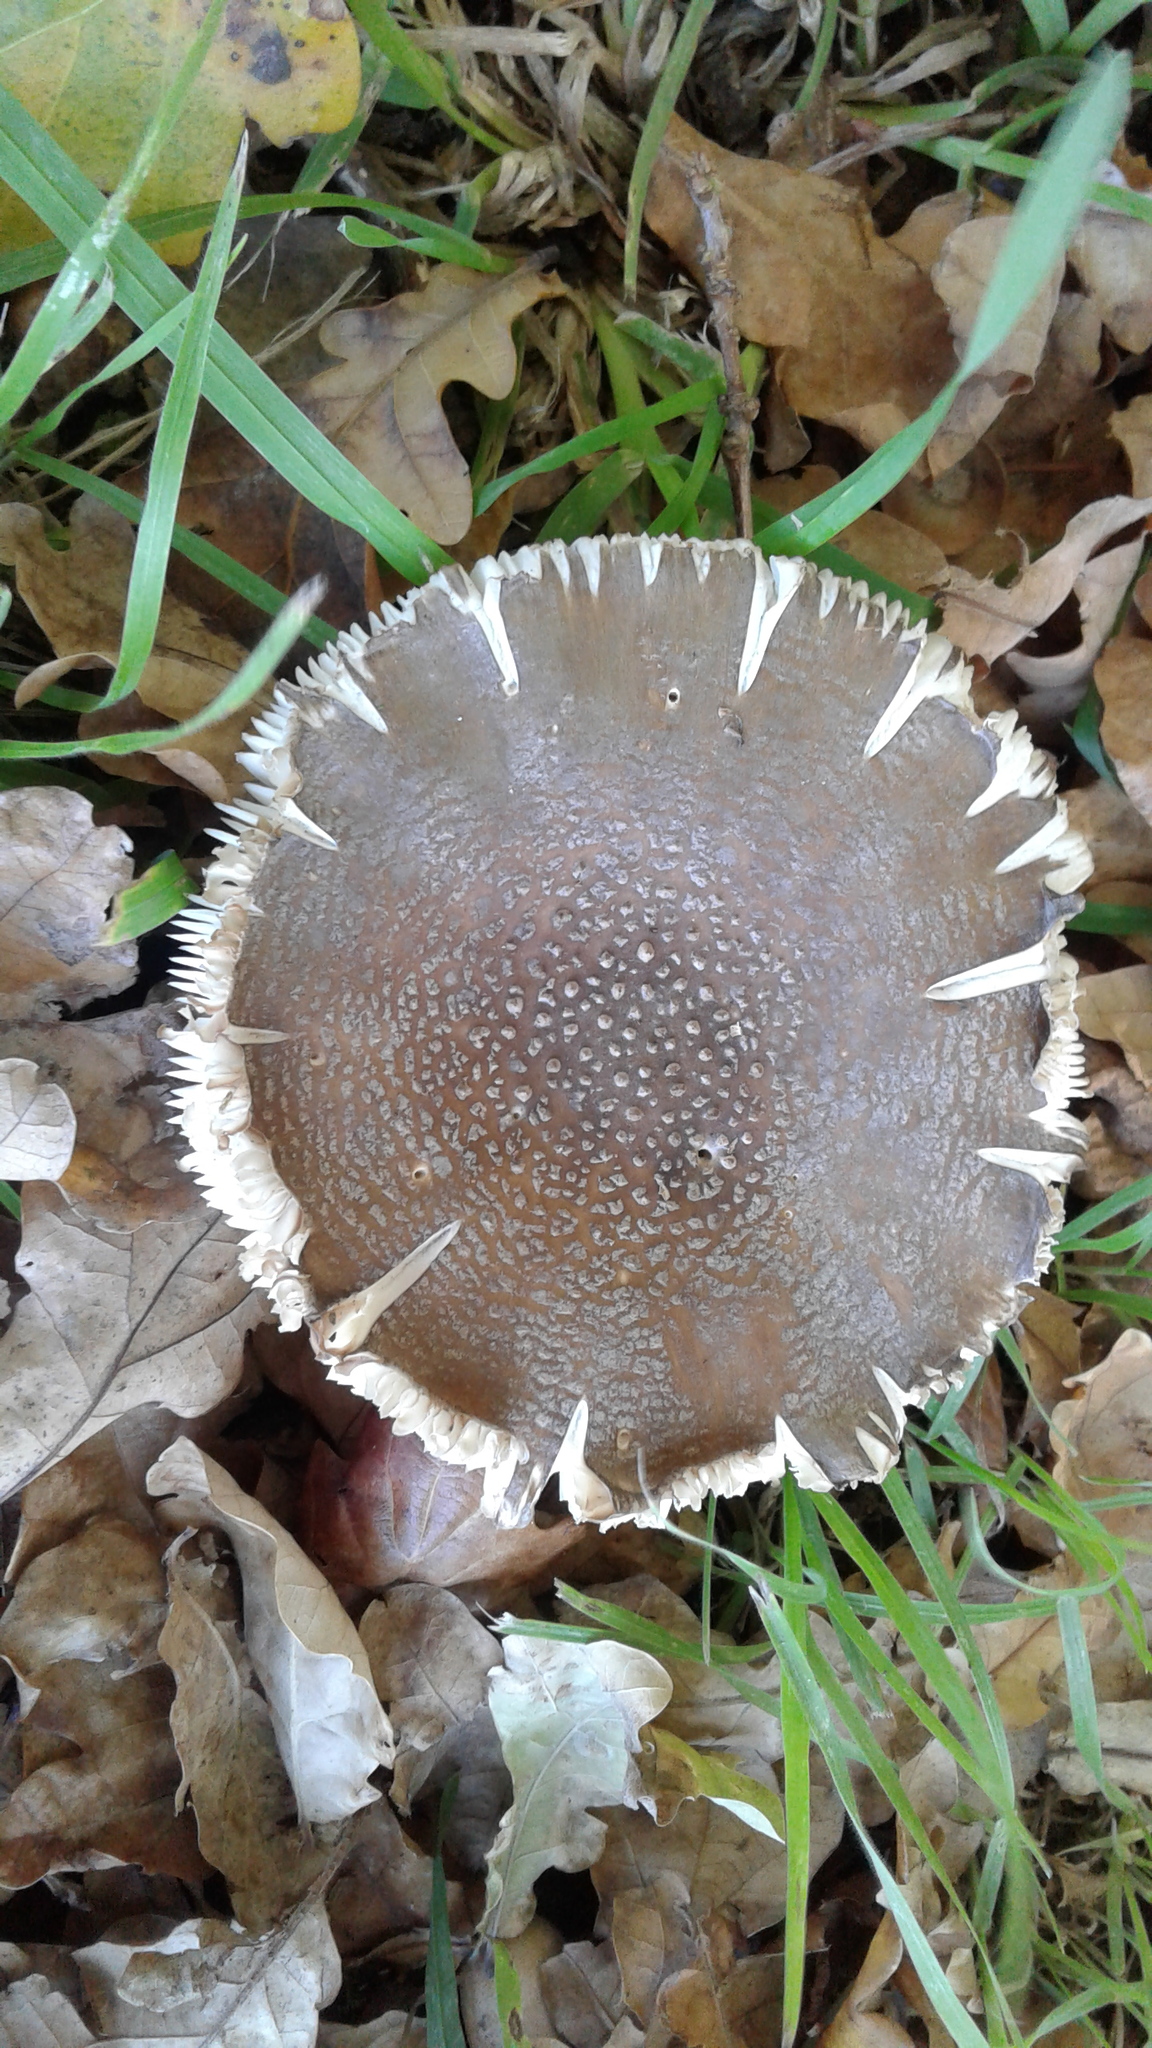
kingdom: Fungi
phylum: Basidiomycota
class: Agaricomycetes
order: Agaricales
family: Amanitaceae
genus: Amanita
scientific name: Amanita excelsa
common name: European false blusher
